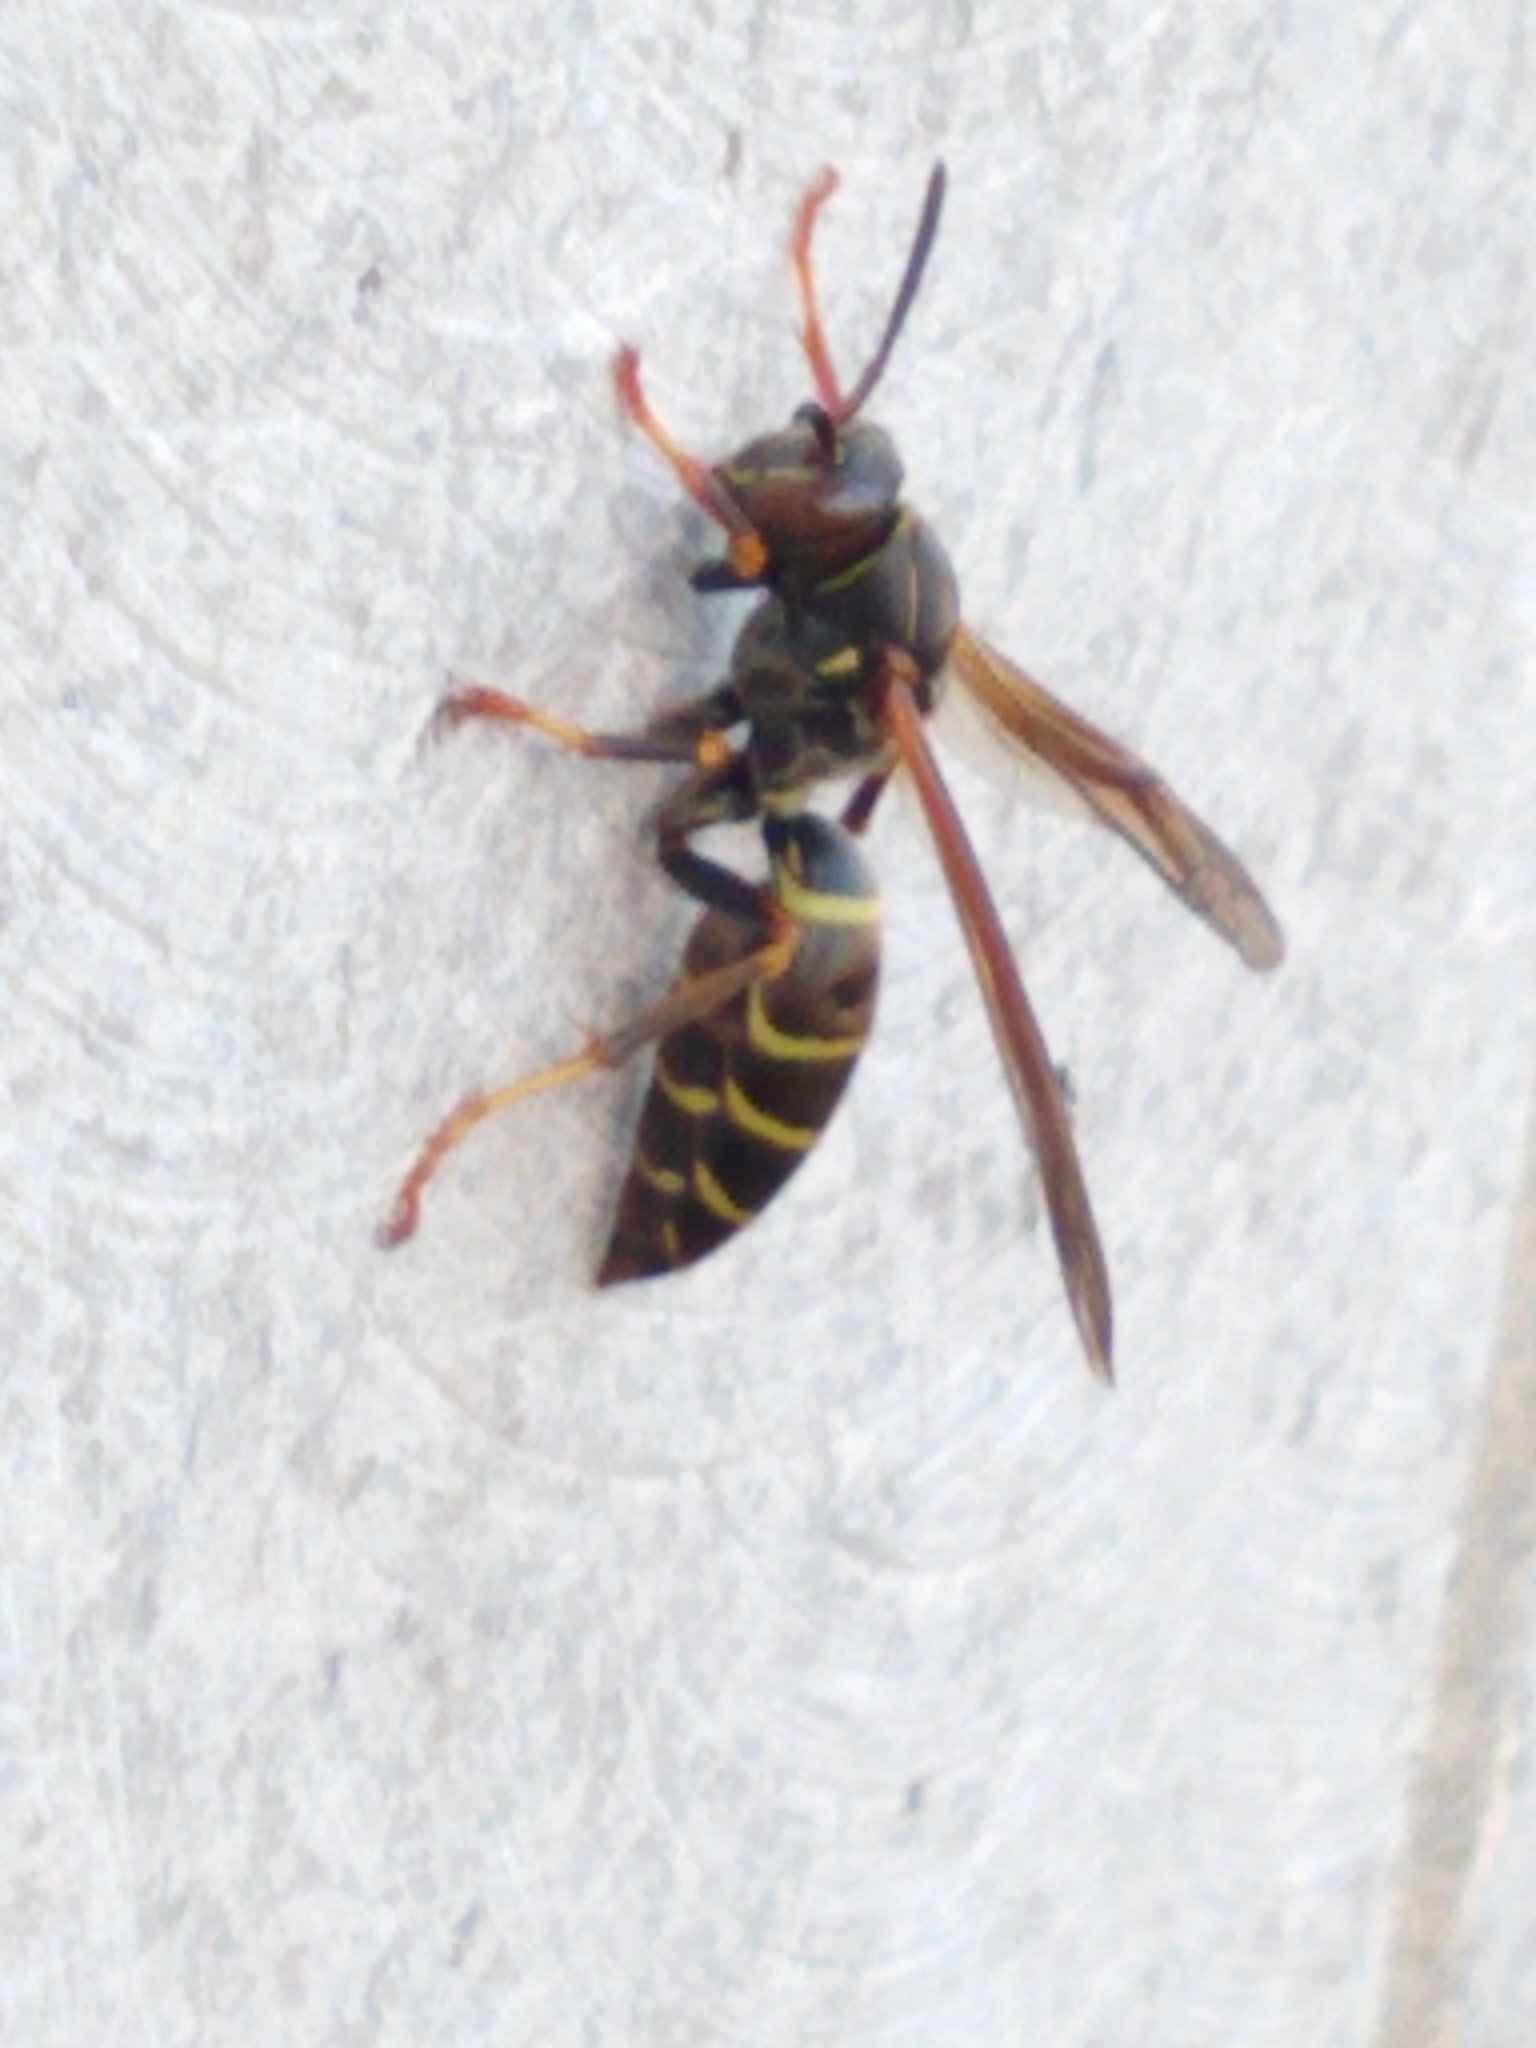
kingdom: Animalia
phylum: Arthropoda
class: Insecta
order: Hymenoptera
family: Eumenidae
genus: Polistes
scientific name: Polistes fuscatus
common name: Dark paper wasp
